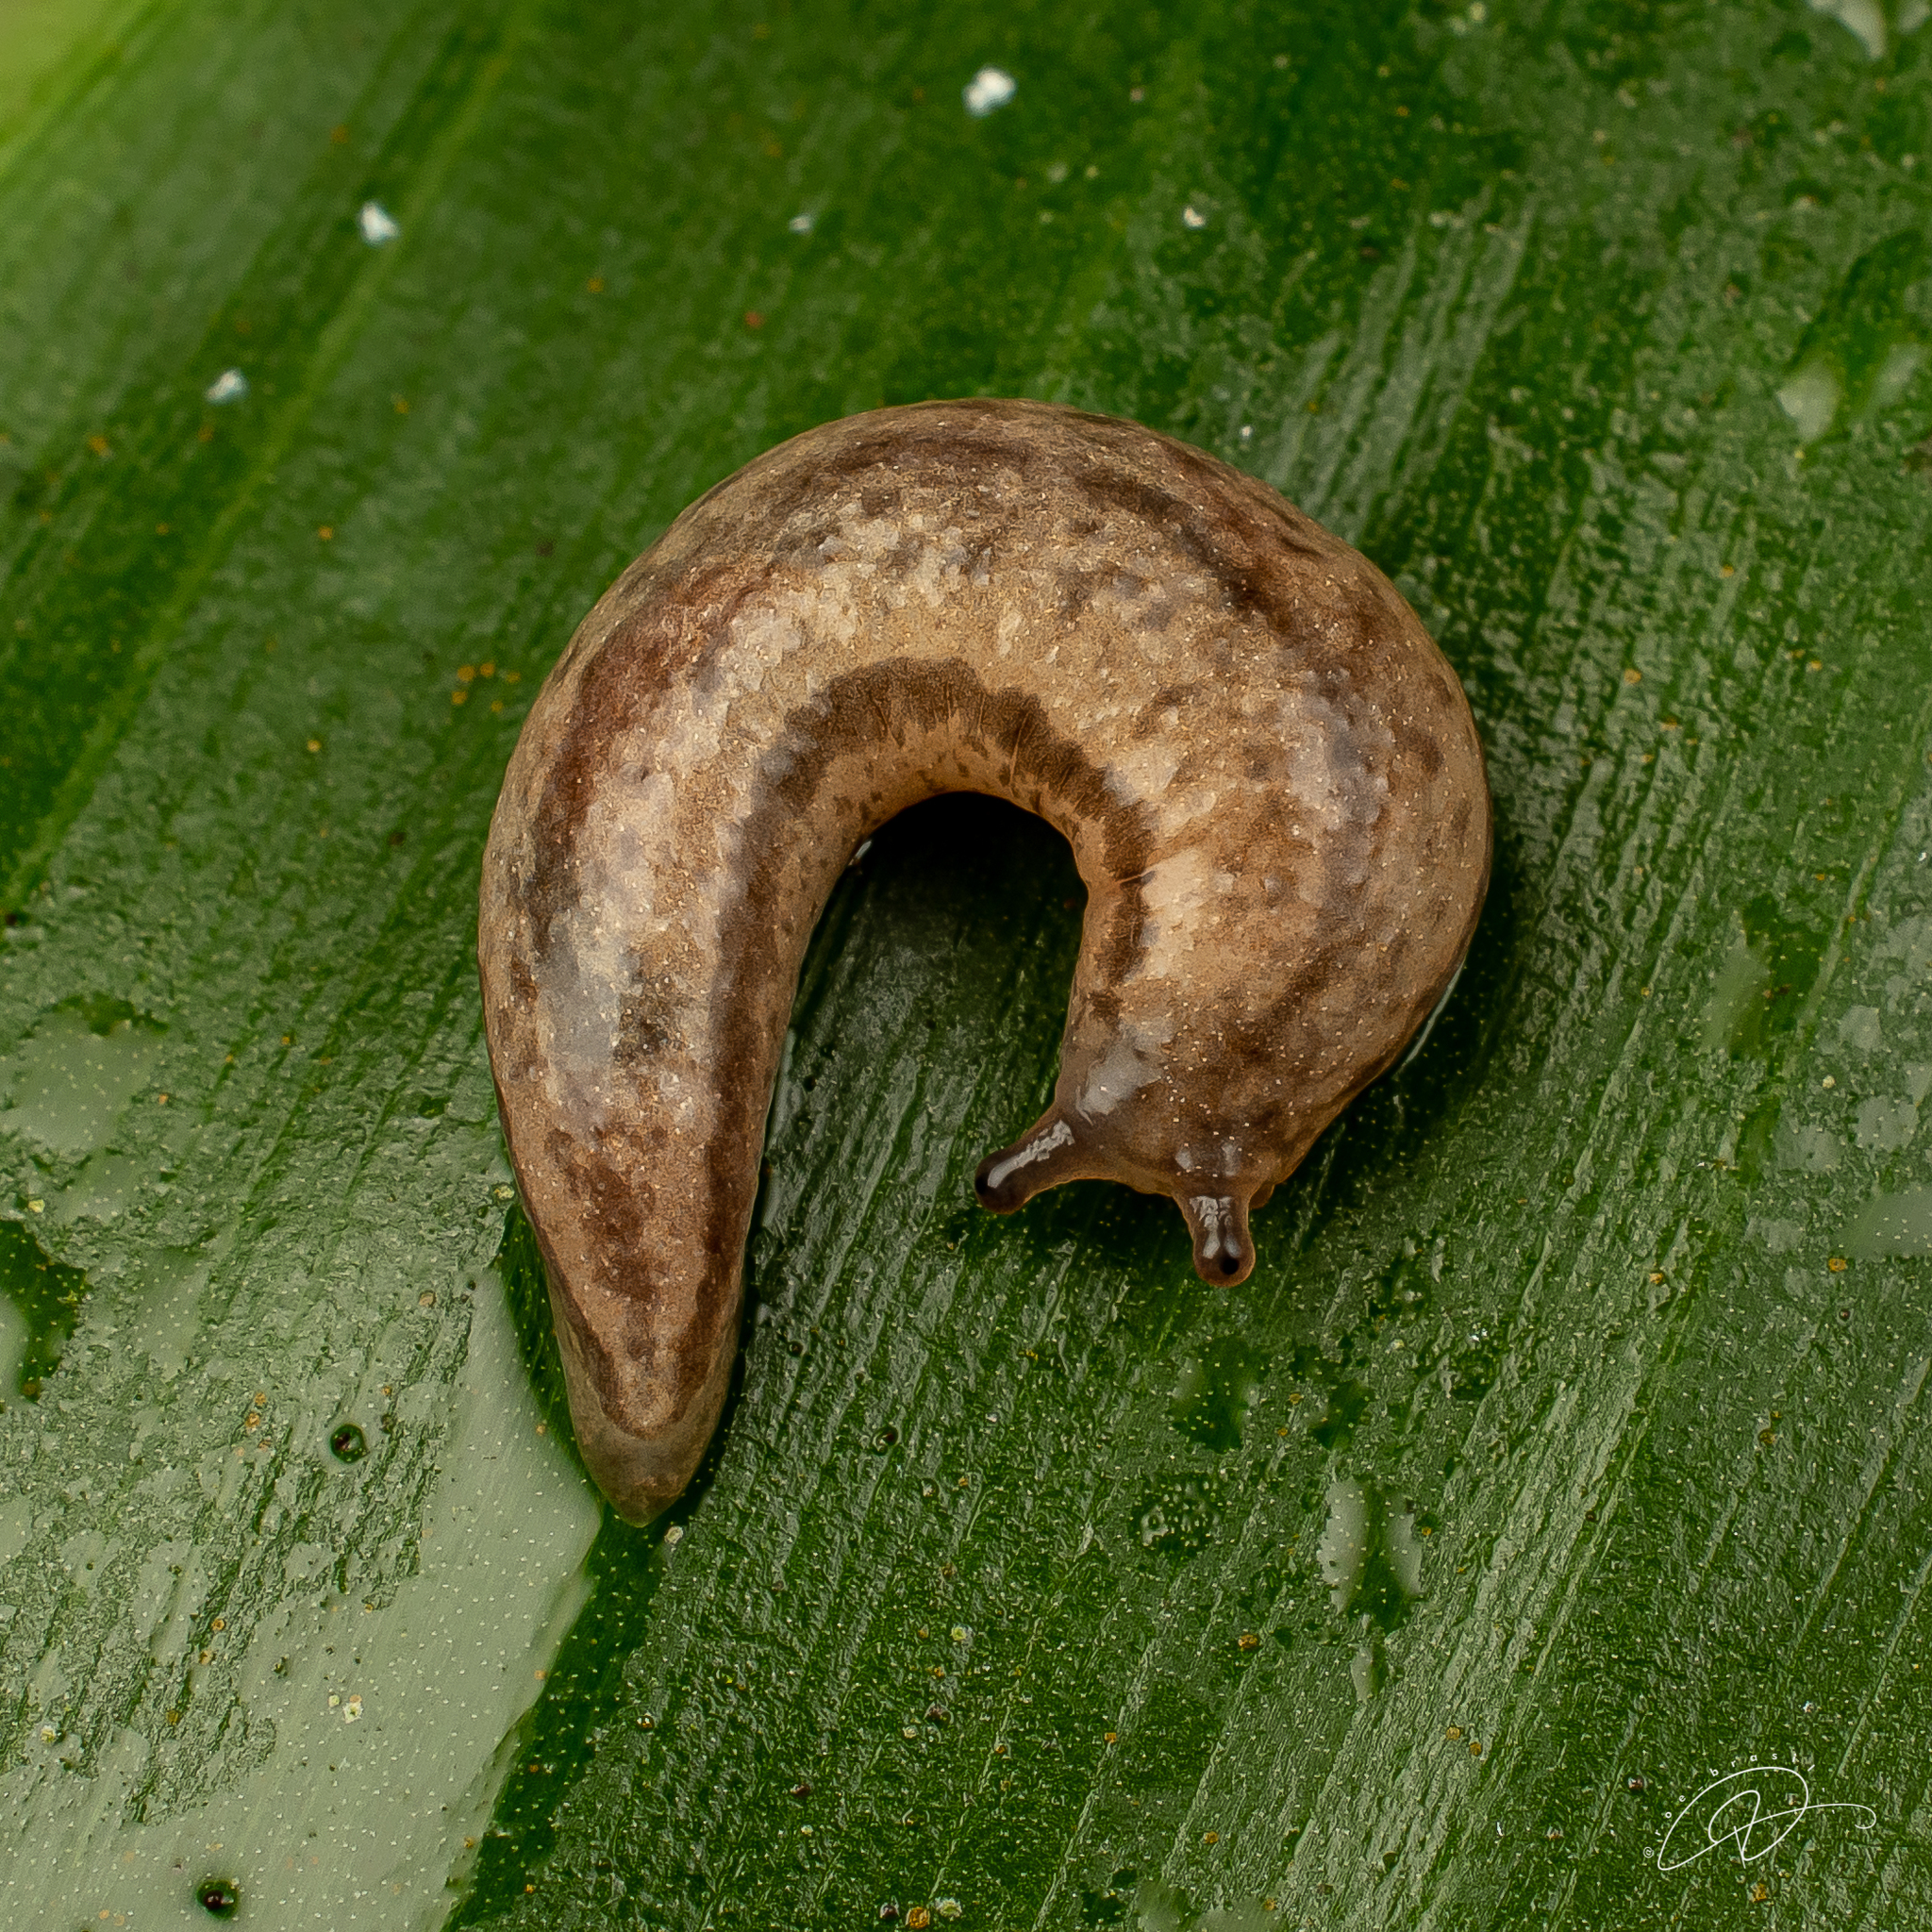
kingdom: Animalia
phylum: Mollusca
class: Gastropoda
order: Stylommatophora
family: Philomycidae
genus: Meghimatium
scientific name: Meghimatium pictum
